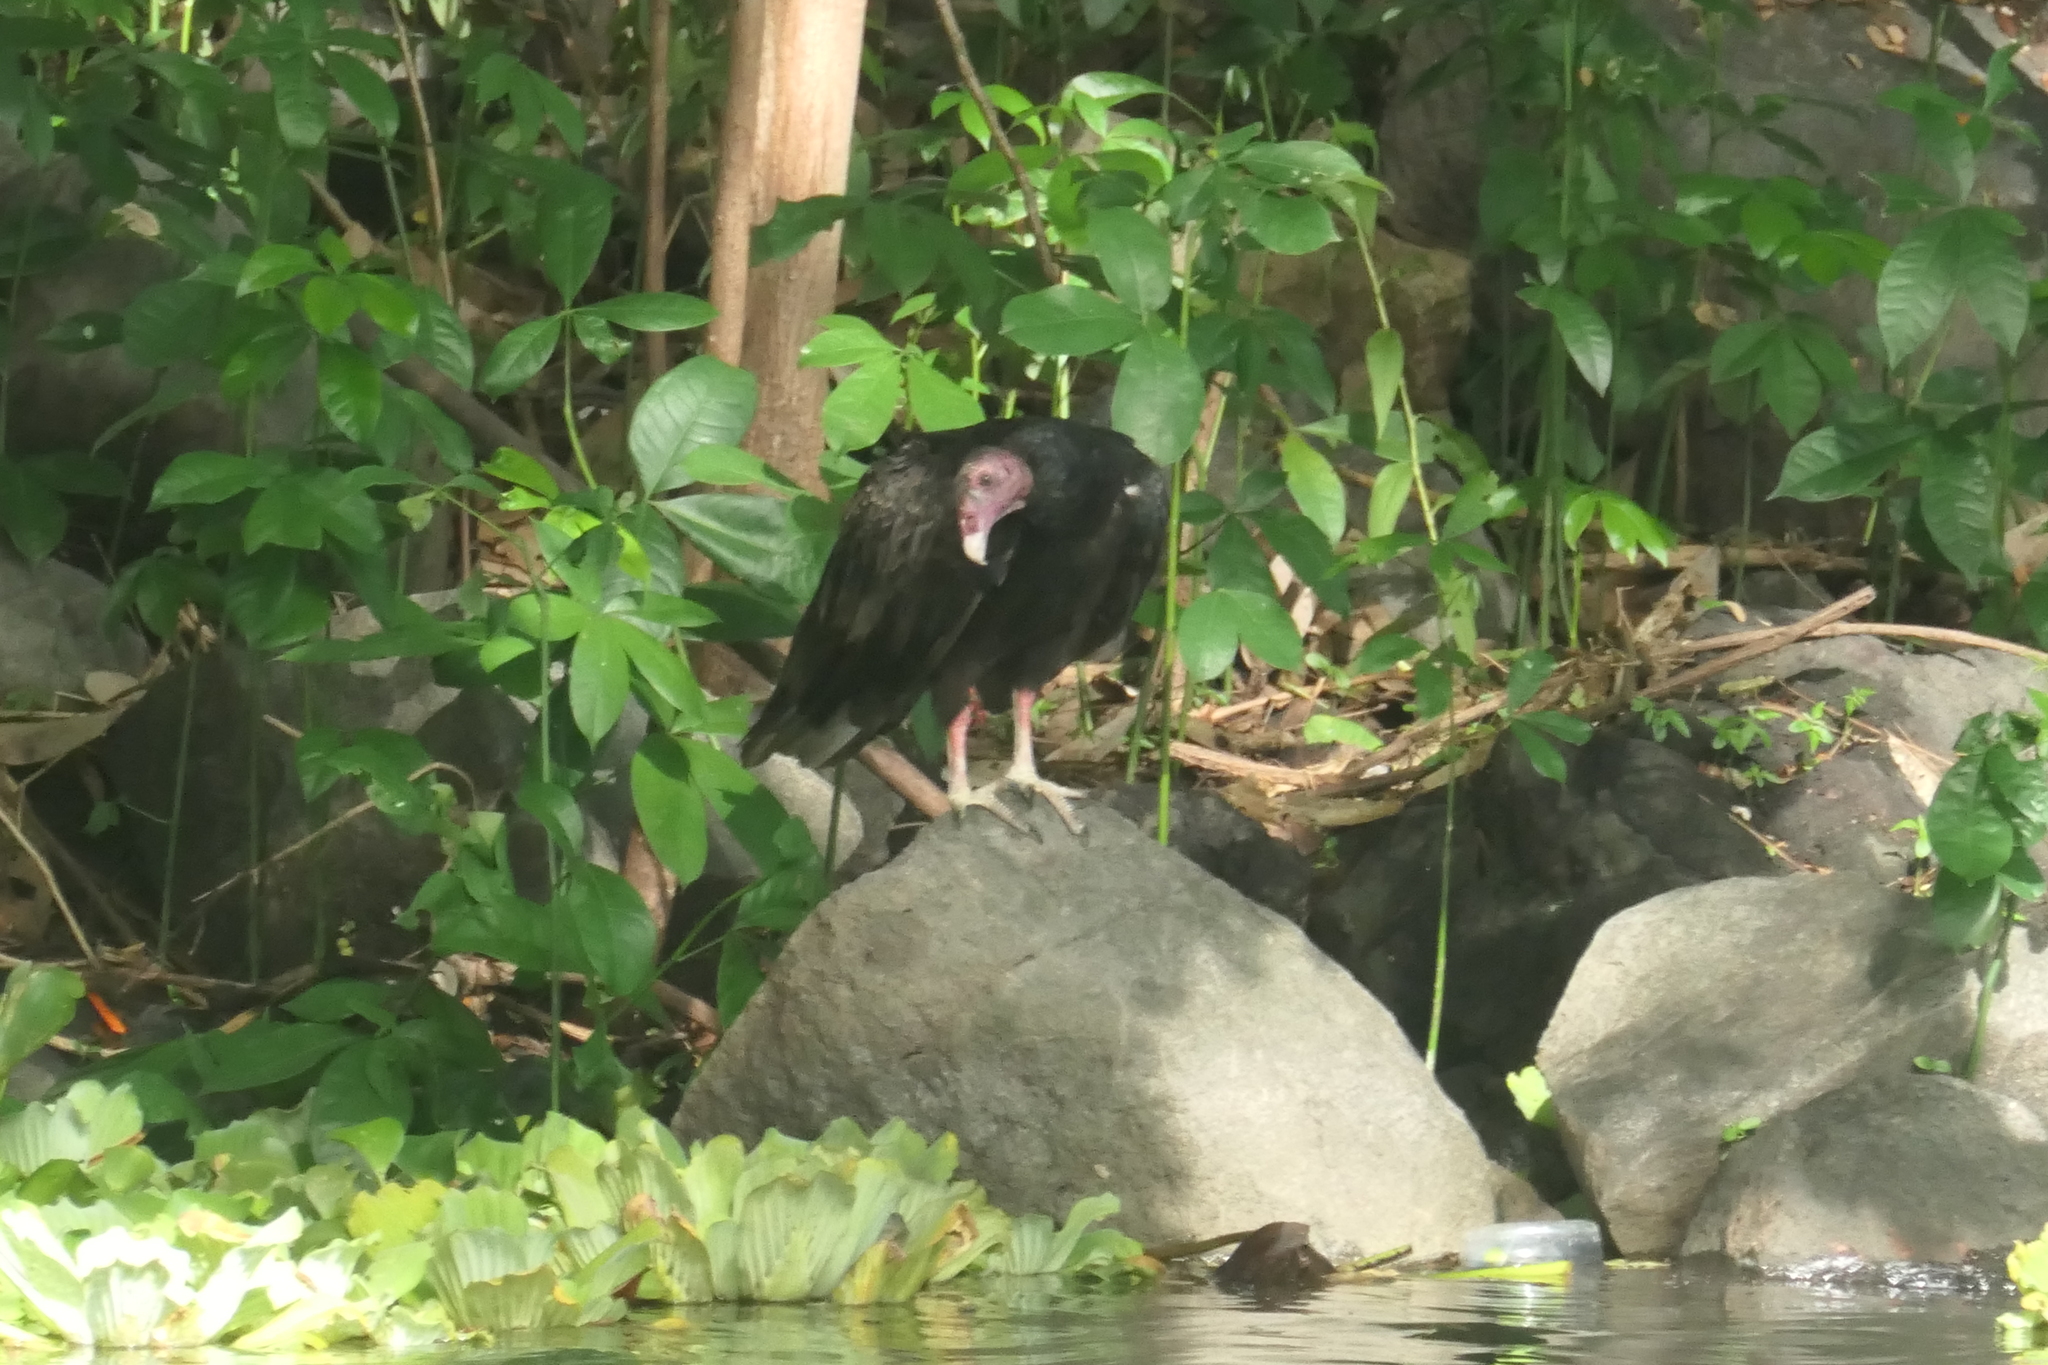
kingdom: Animalia
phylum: Chordata
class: Aves
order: Accipitriformes
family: Cathartidae
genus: Cathartes
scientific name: Cathartes aura
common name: Turkey vulture
